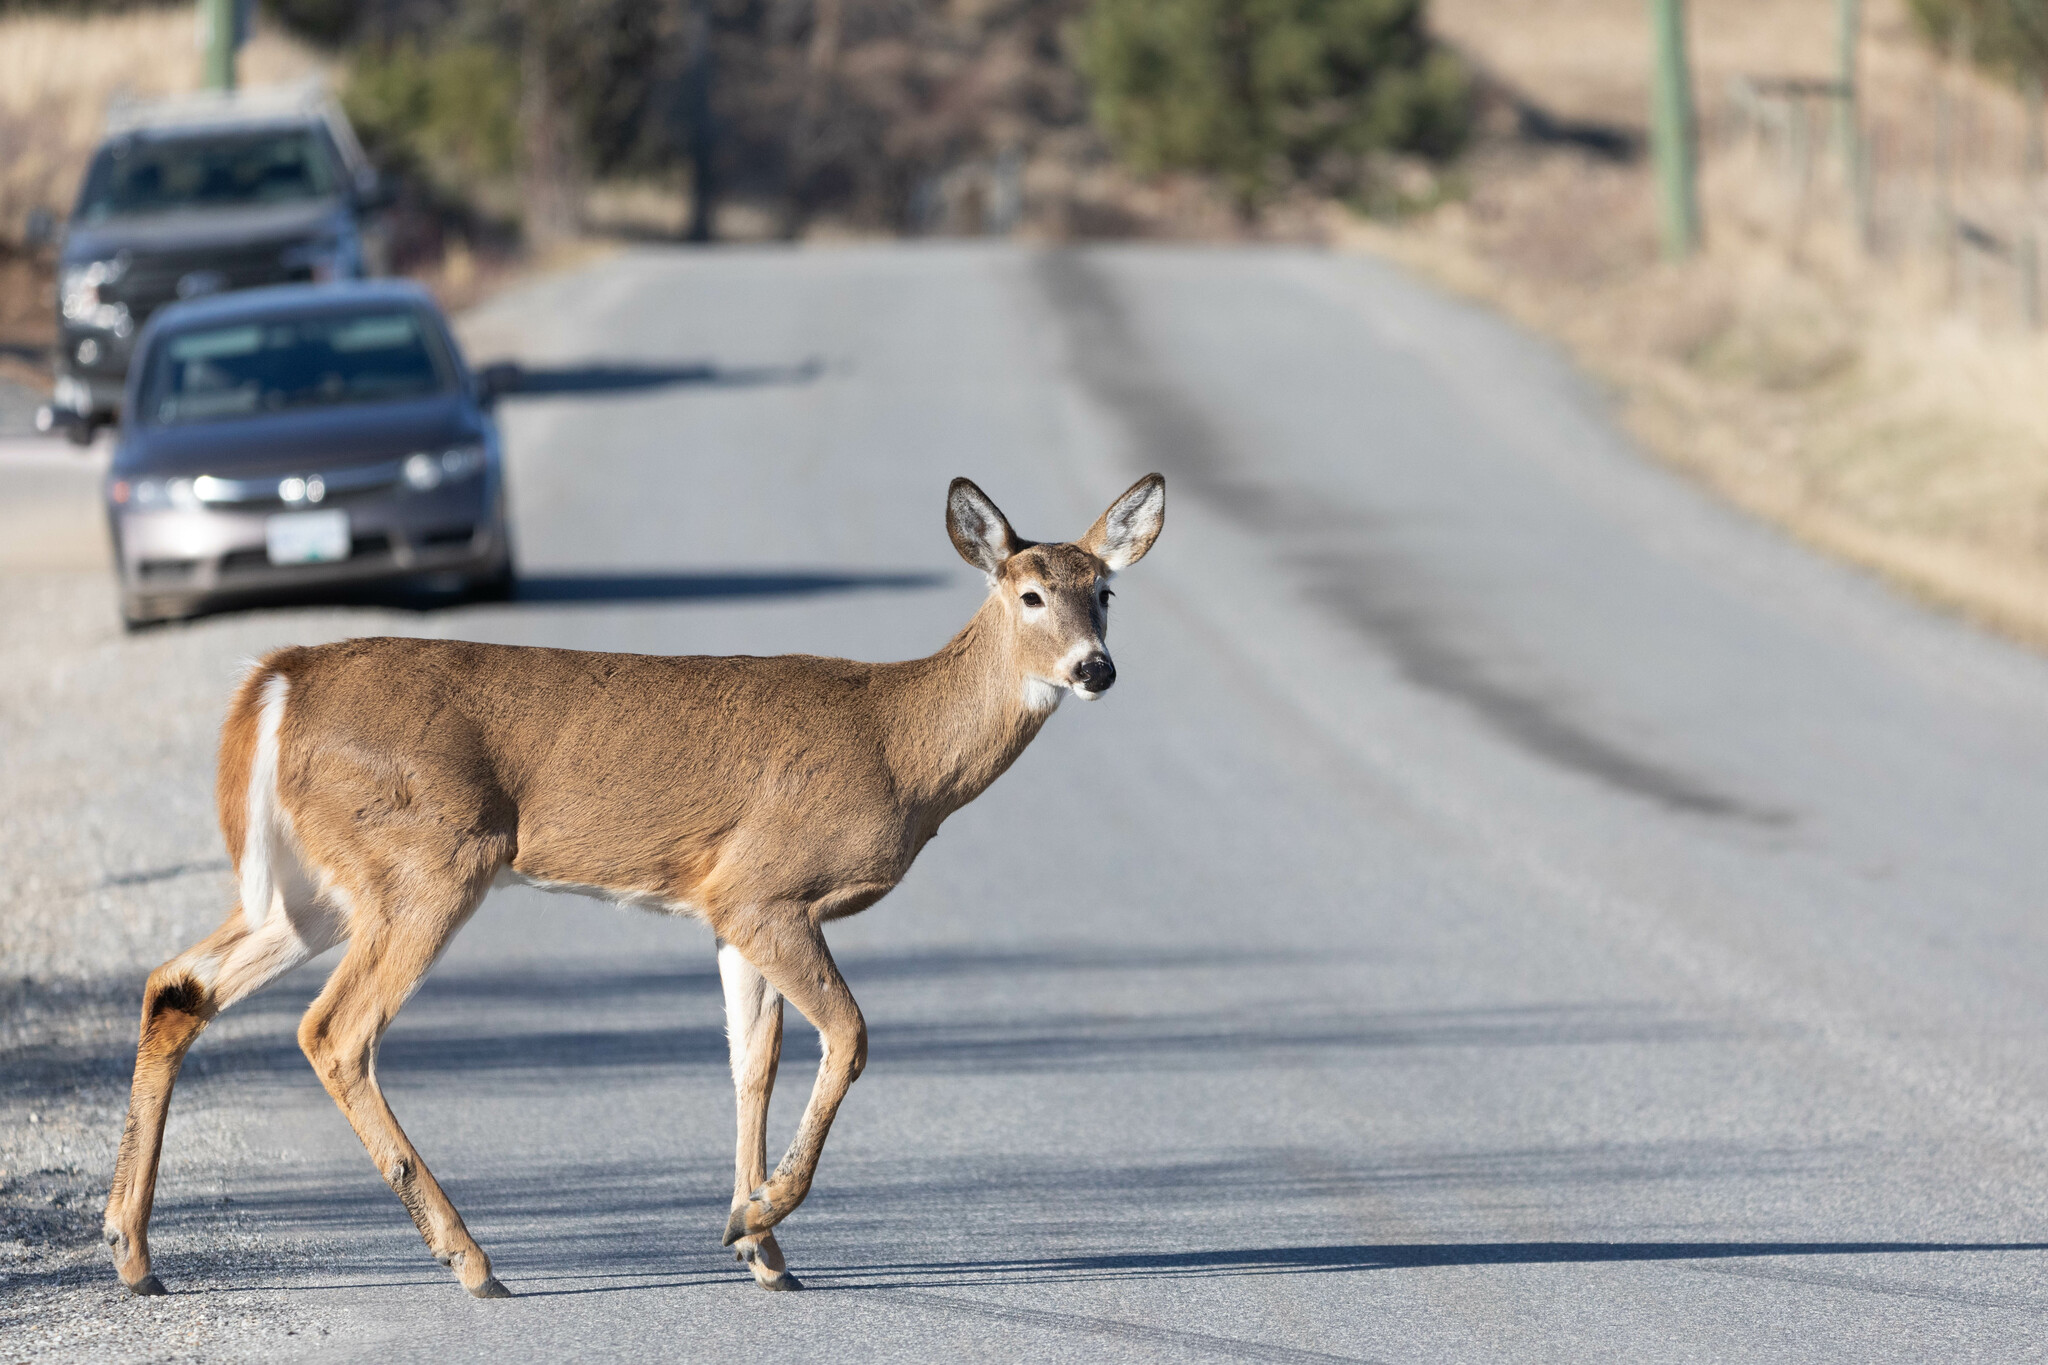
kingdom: Animalia
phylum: Chordata
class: Mammalia
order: Artiodactyla
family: Cervidae
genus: Odocoileus
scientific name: Odocoileus virginianus
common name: White-tailed deer
